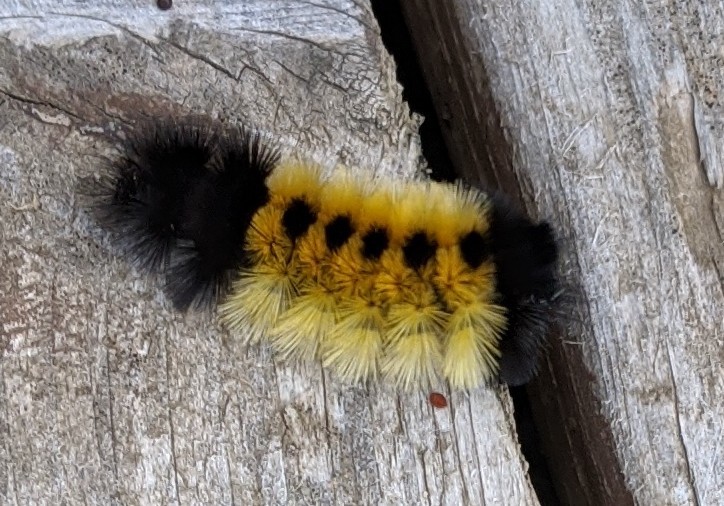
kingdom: Animalia
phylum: Arthropoda
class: Insecta
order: Lepidoptera
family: Erebidae
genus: Lophocampa
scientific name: Lophocampa maculata
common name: Spotted tussock moth
